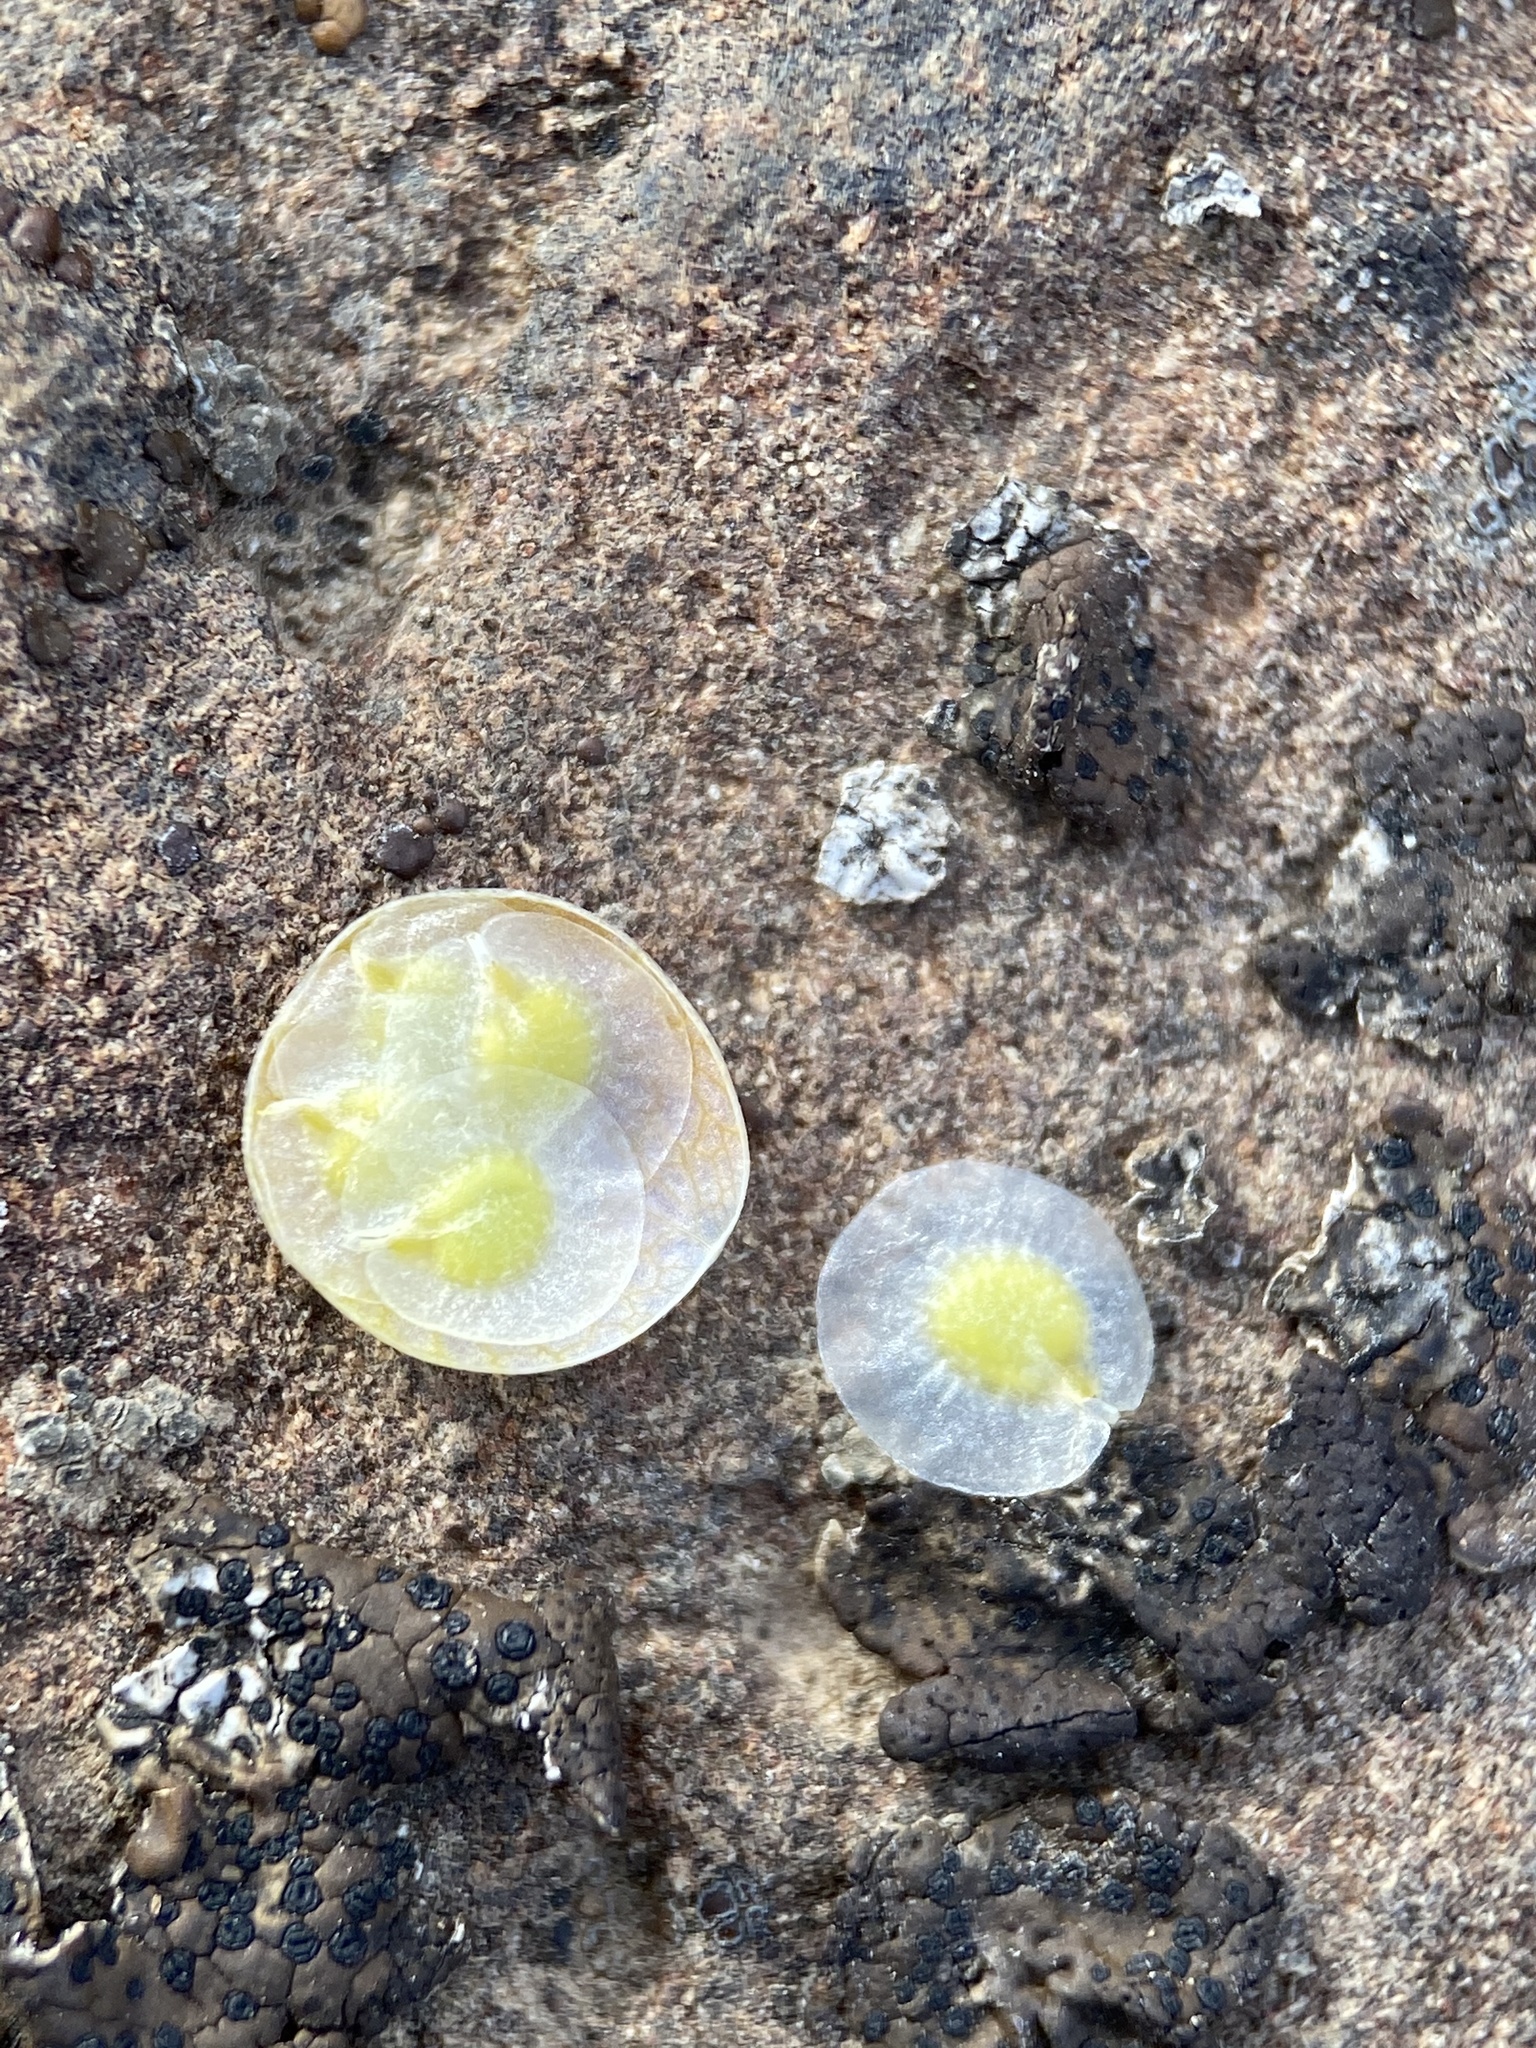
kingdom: Plantae
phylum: Tracheophyta
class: Magnoliopsida
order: Brassicales
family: Brassicaceae
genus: Idahoa
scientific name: Idahoa scapigera
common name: Scalepod
